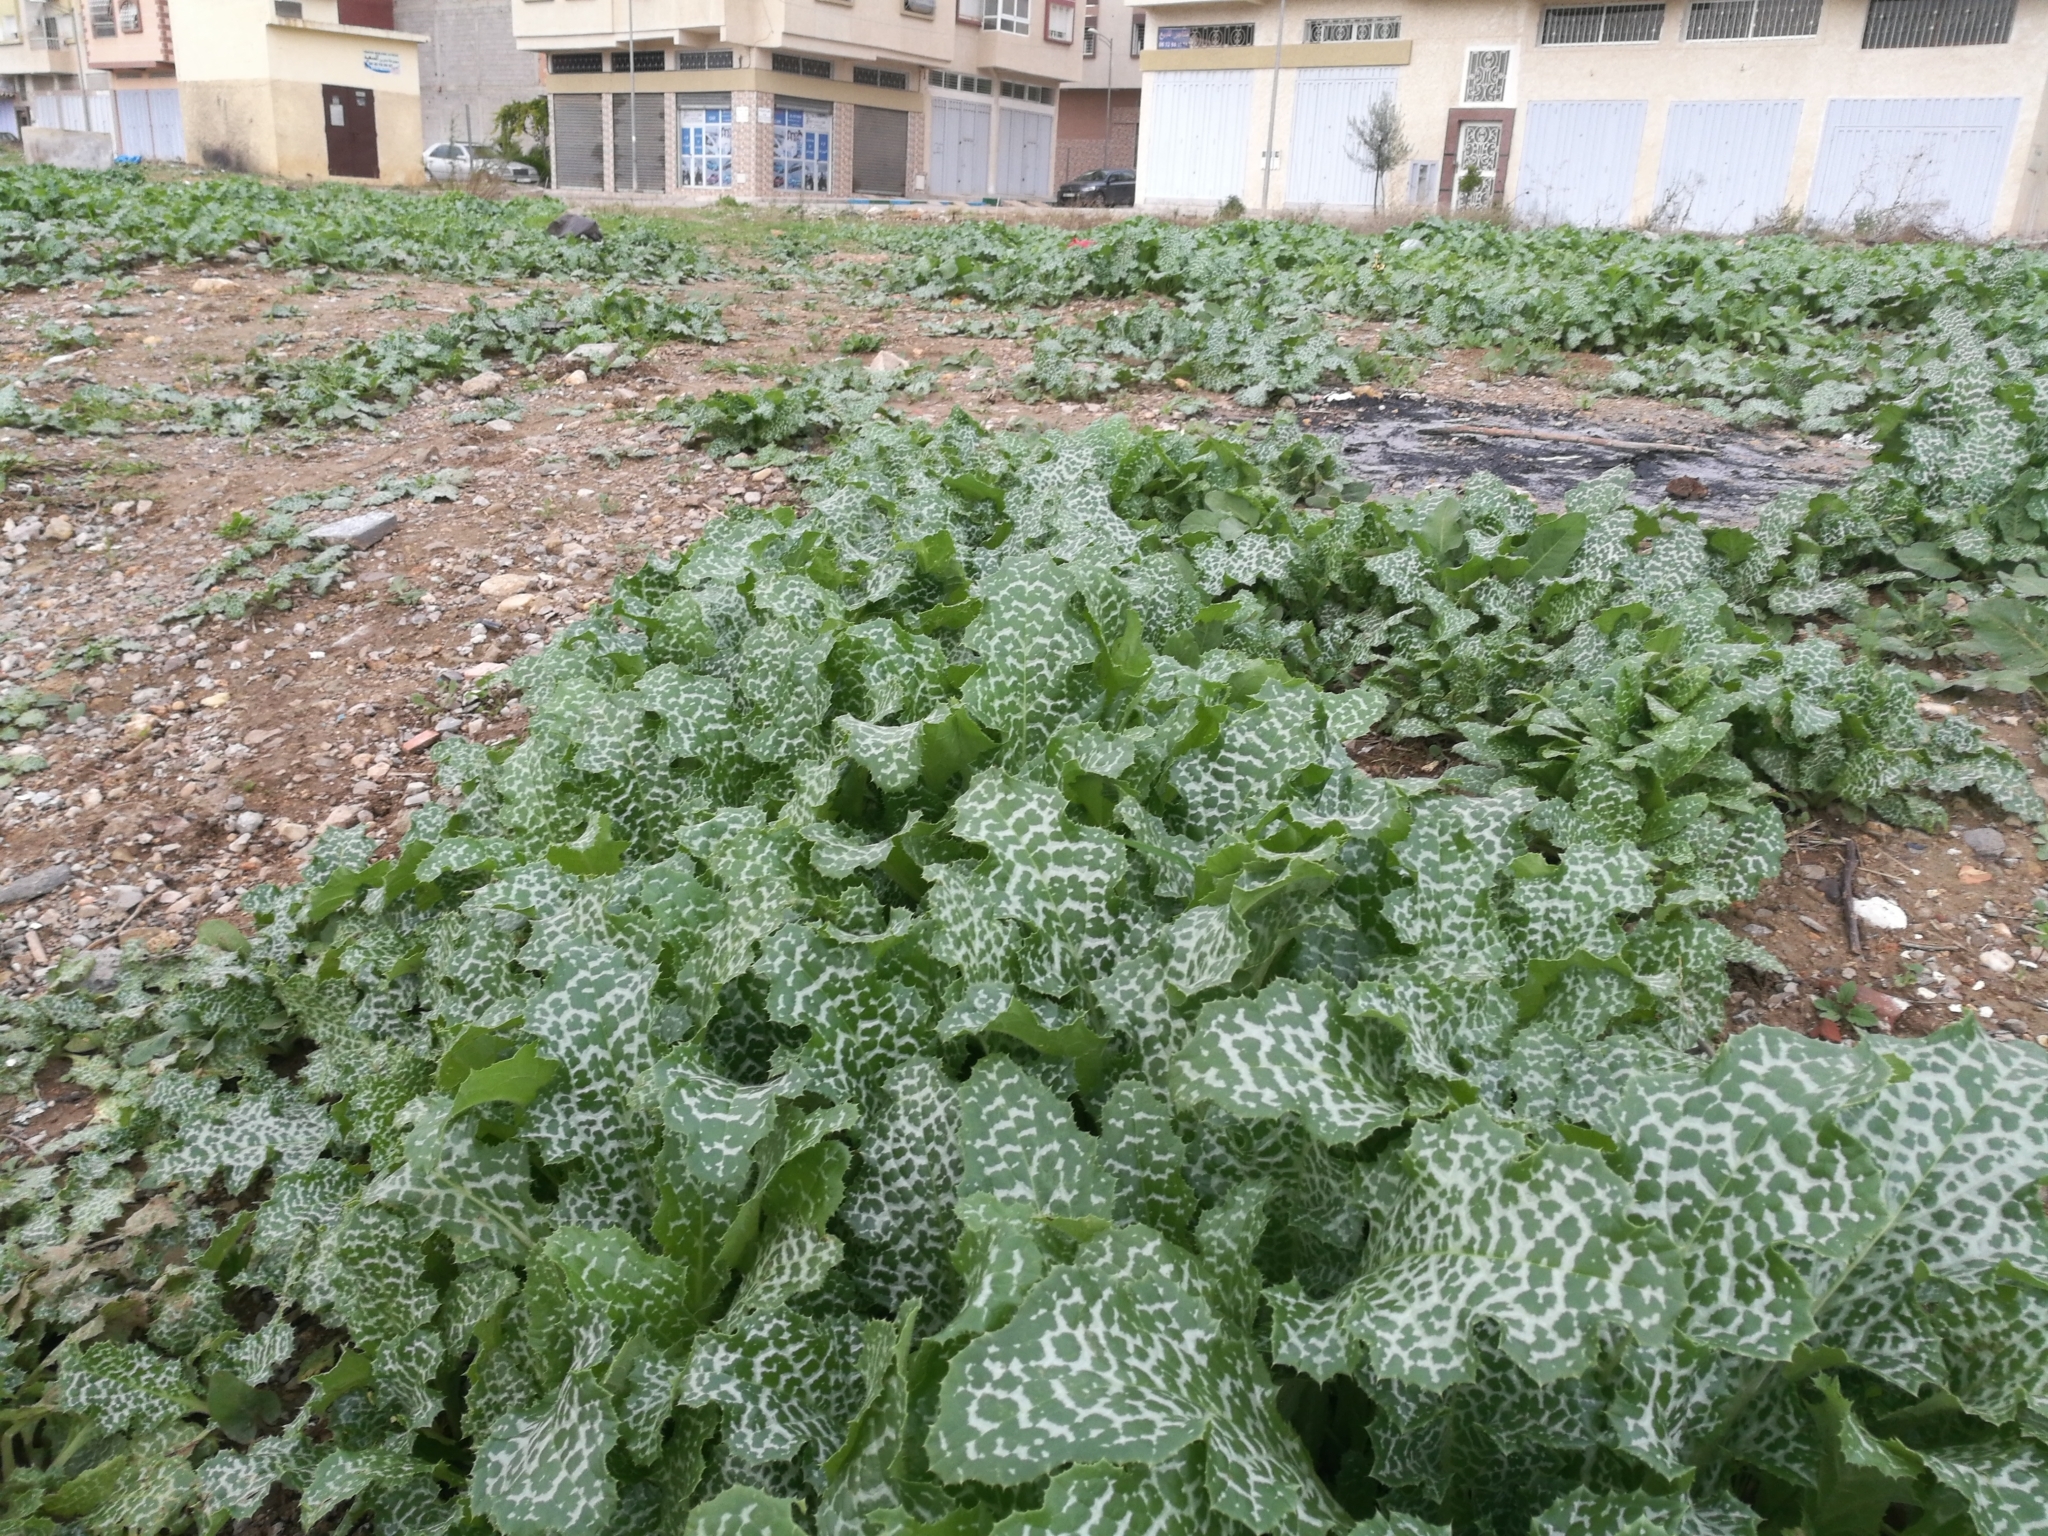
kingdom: Plantae
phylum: Tracheophyta
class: Magnoliopsida
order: Asterales
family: Asteraceae
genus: Silybum
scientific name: Silybum marianum
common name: Milk thistle
